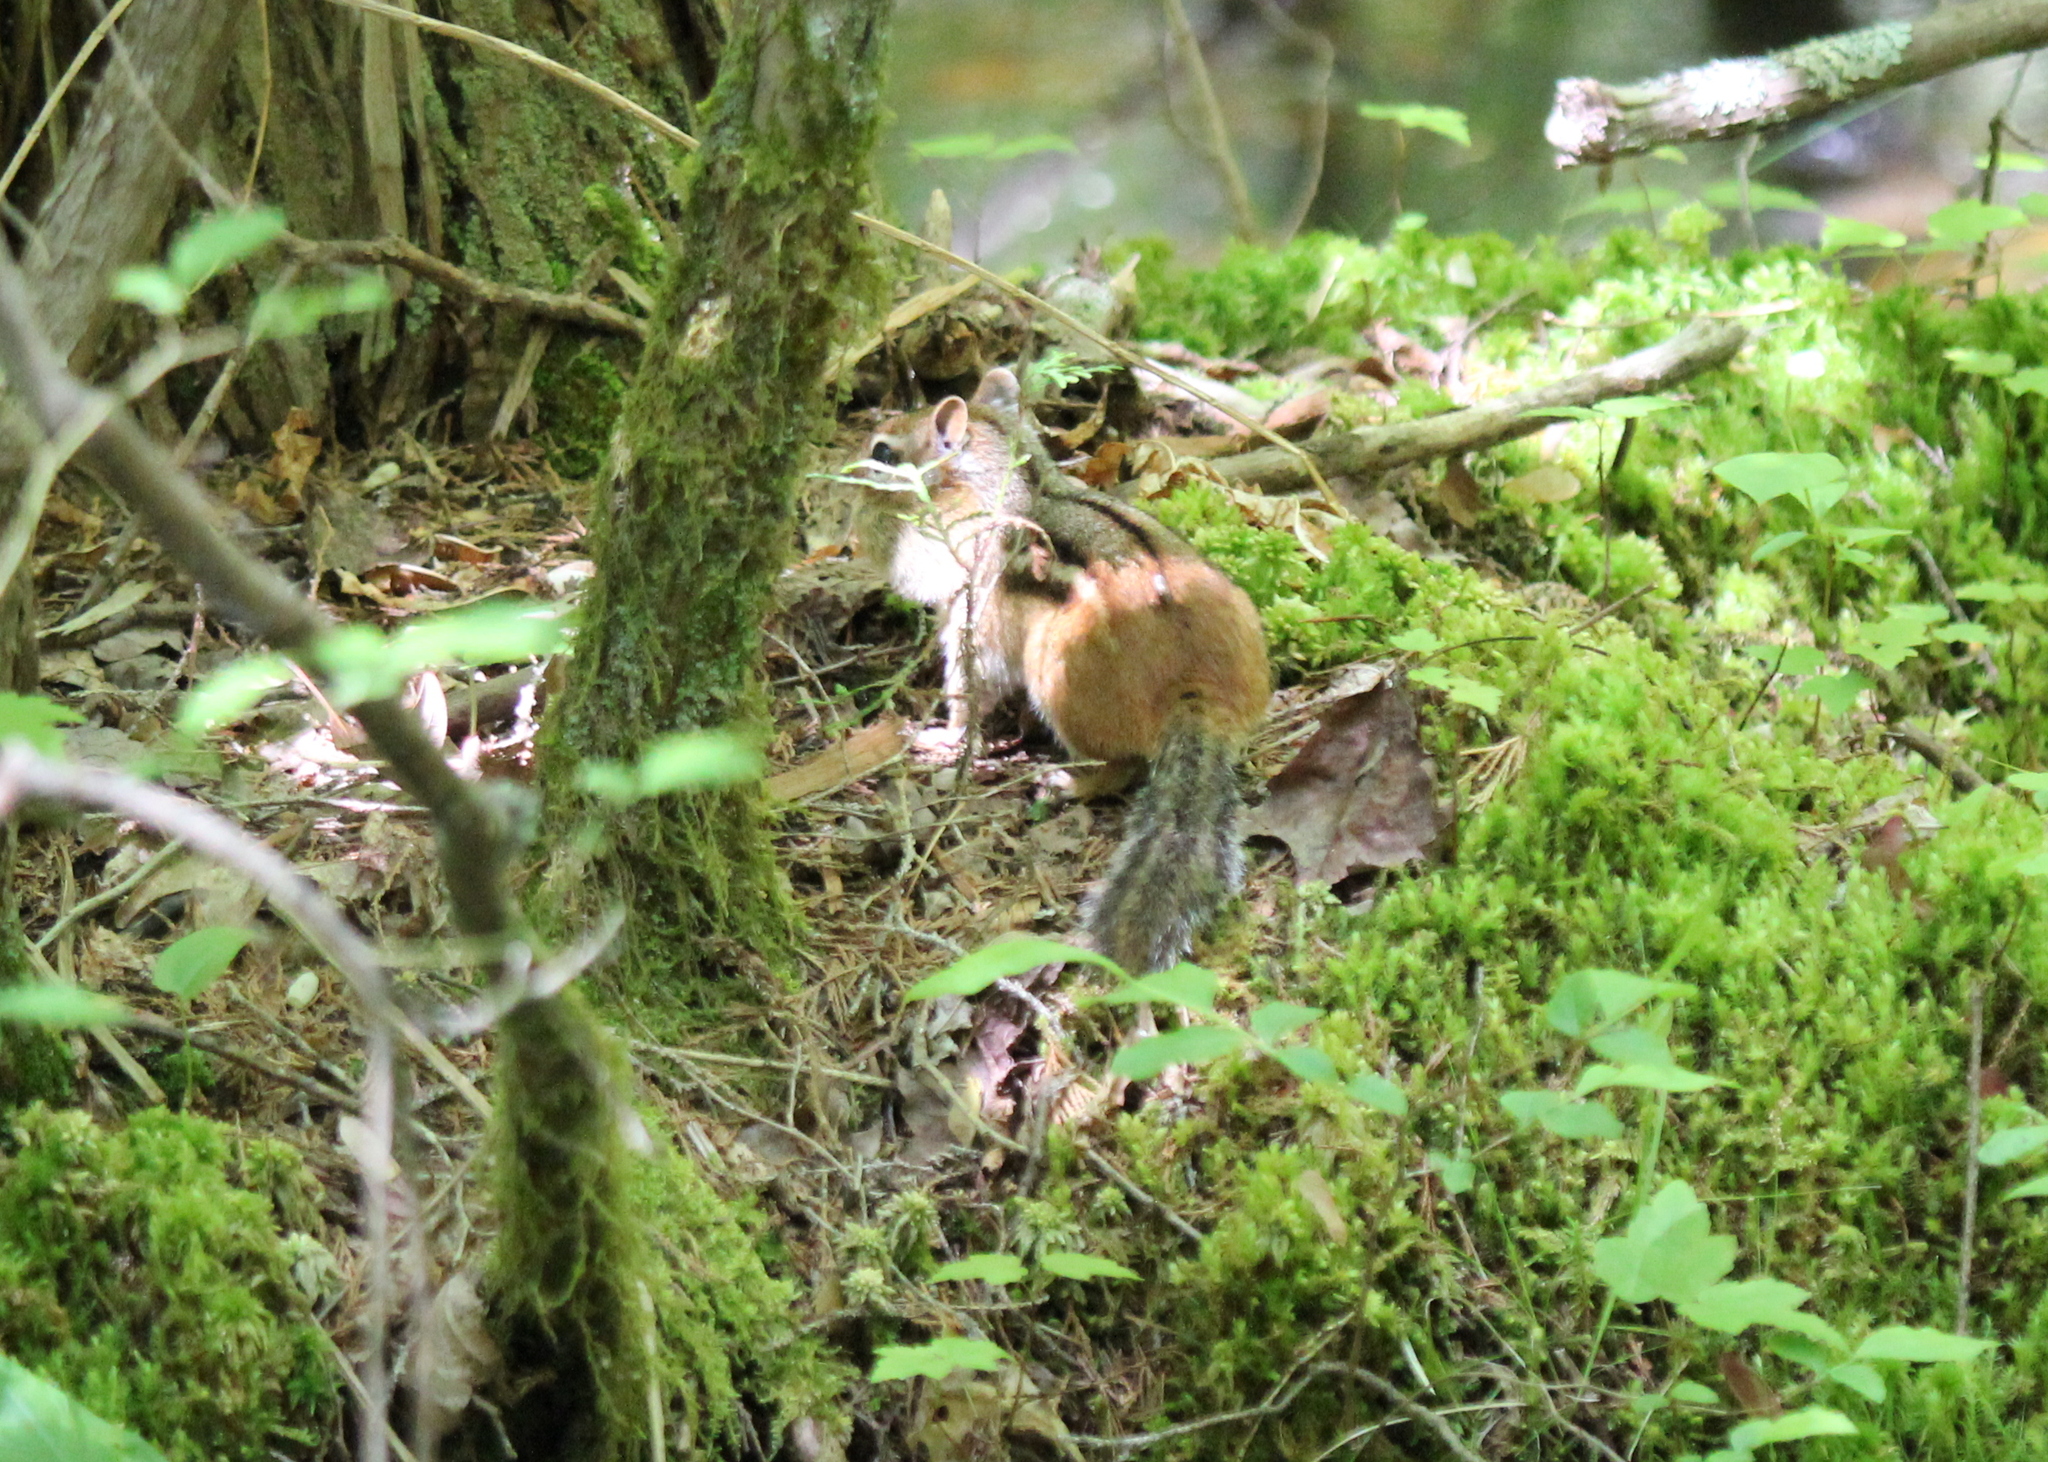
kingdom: Animalia
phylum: Chordata
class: Mammalia
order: Rodentia
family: Sciuridae
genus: Tamias
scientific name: Tamias striatus
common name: Eastern chipmunk
